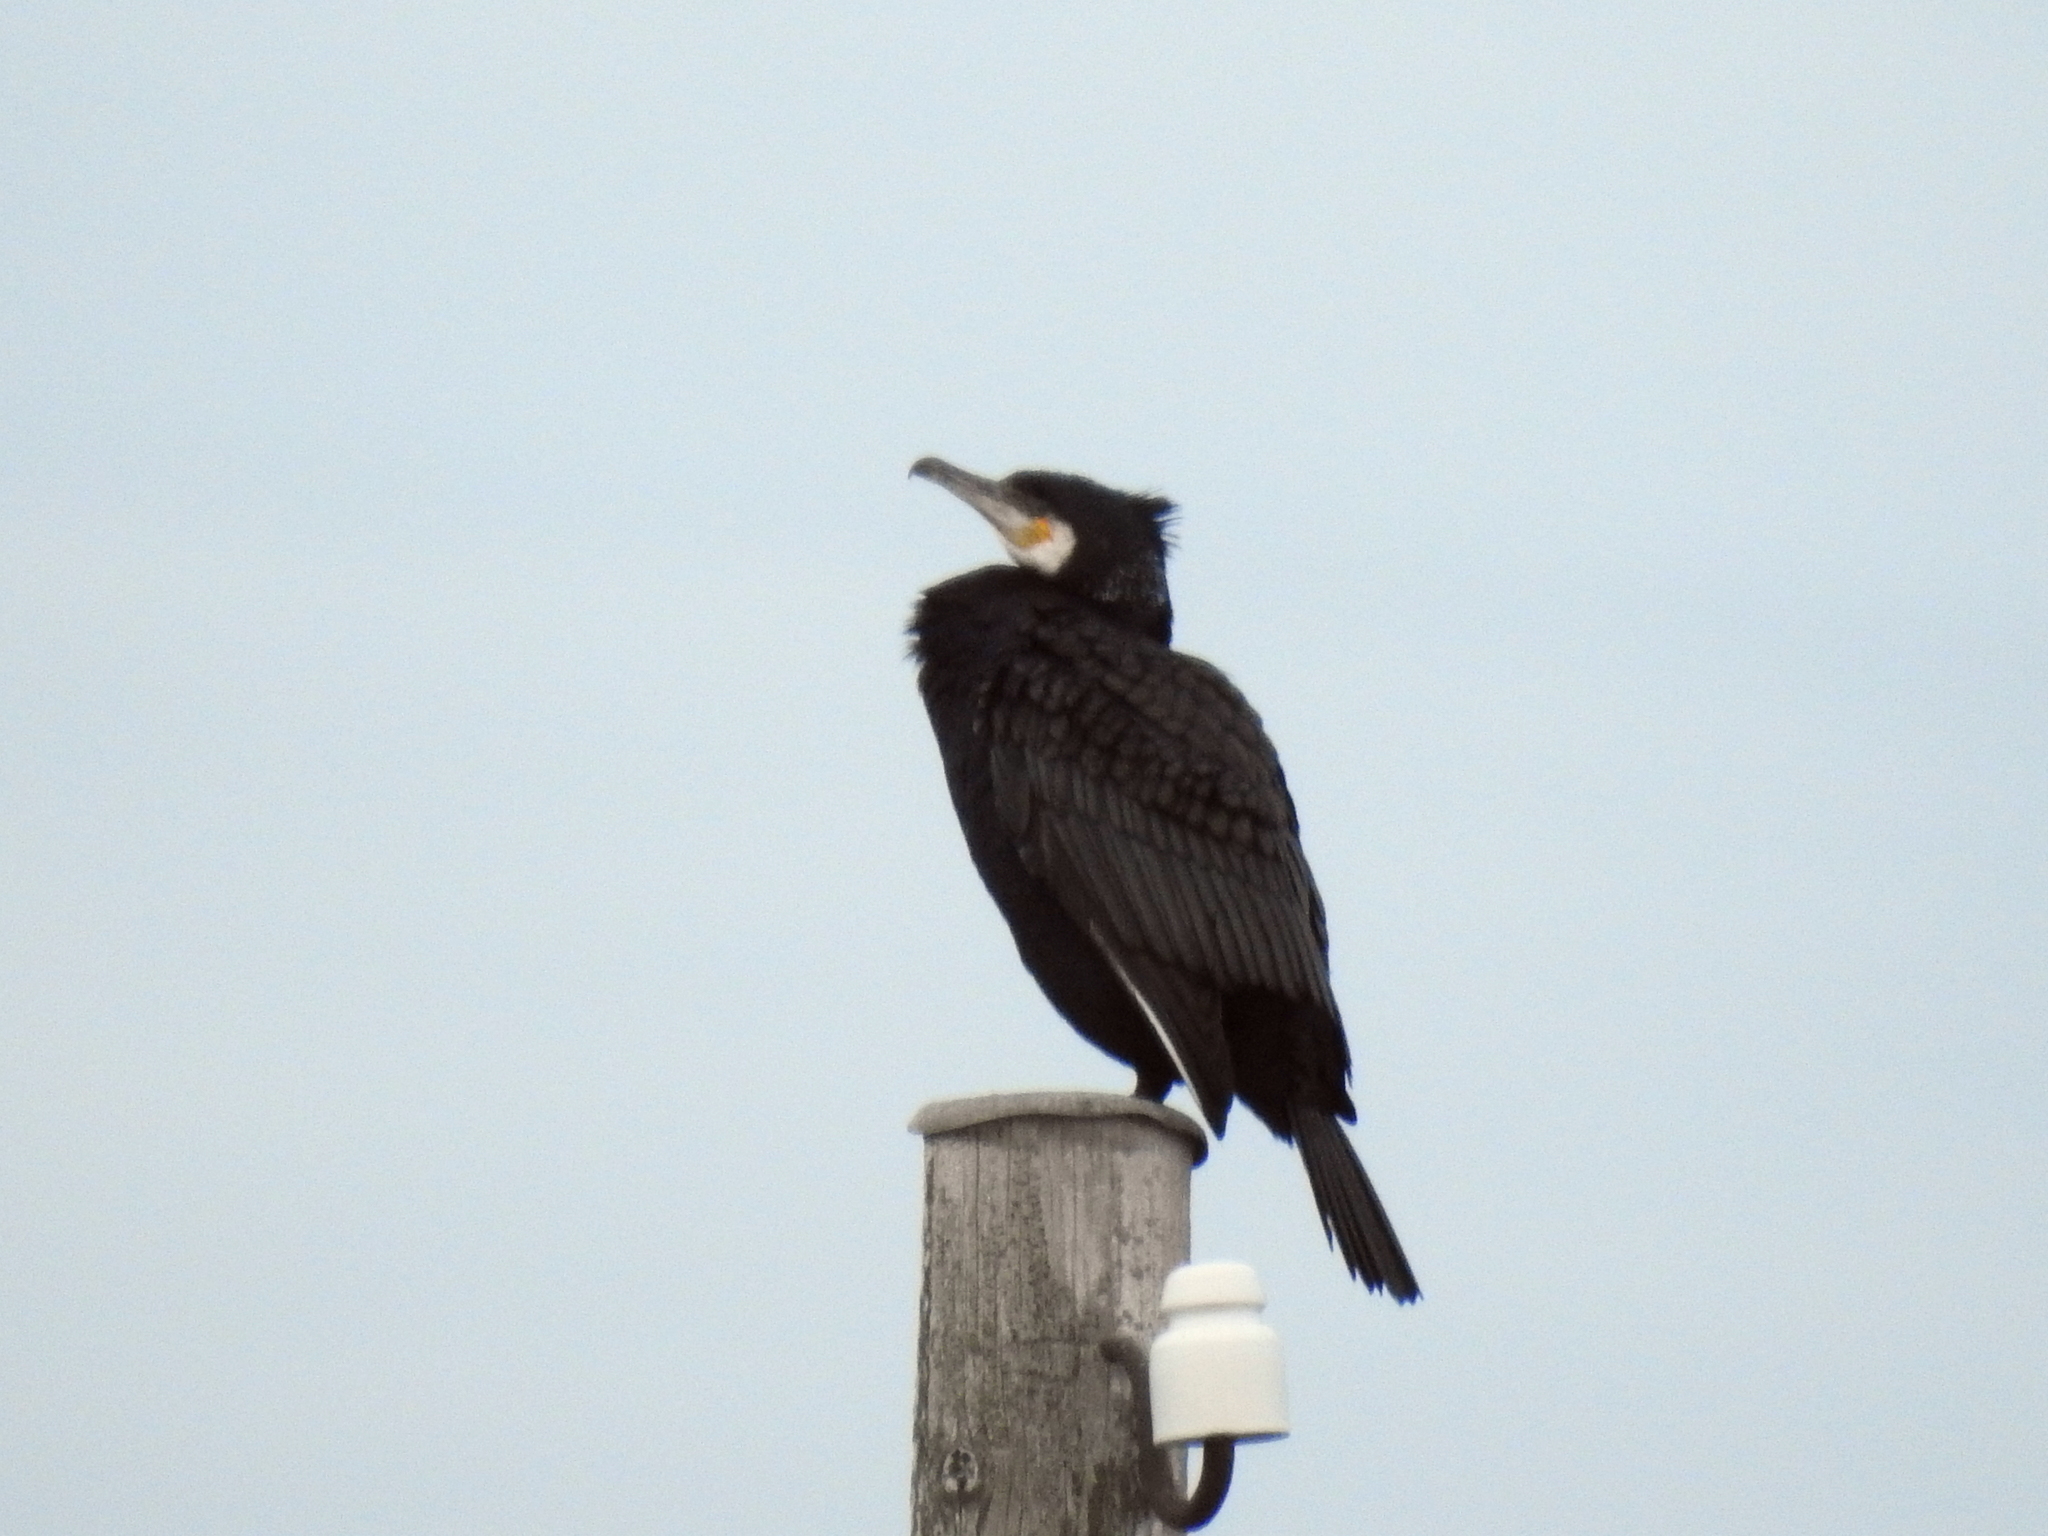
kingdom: Animalia
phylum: Chordata
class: Aves
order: Suliformes
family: Phalacrocoracidae
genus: Phalacrocorax
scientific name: Phalacrocorax carbo
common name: Great cormorant
